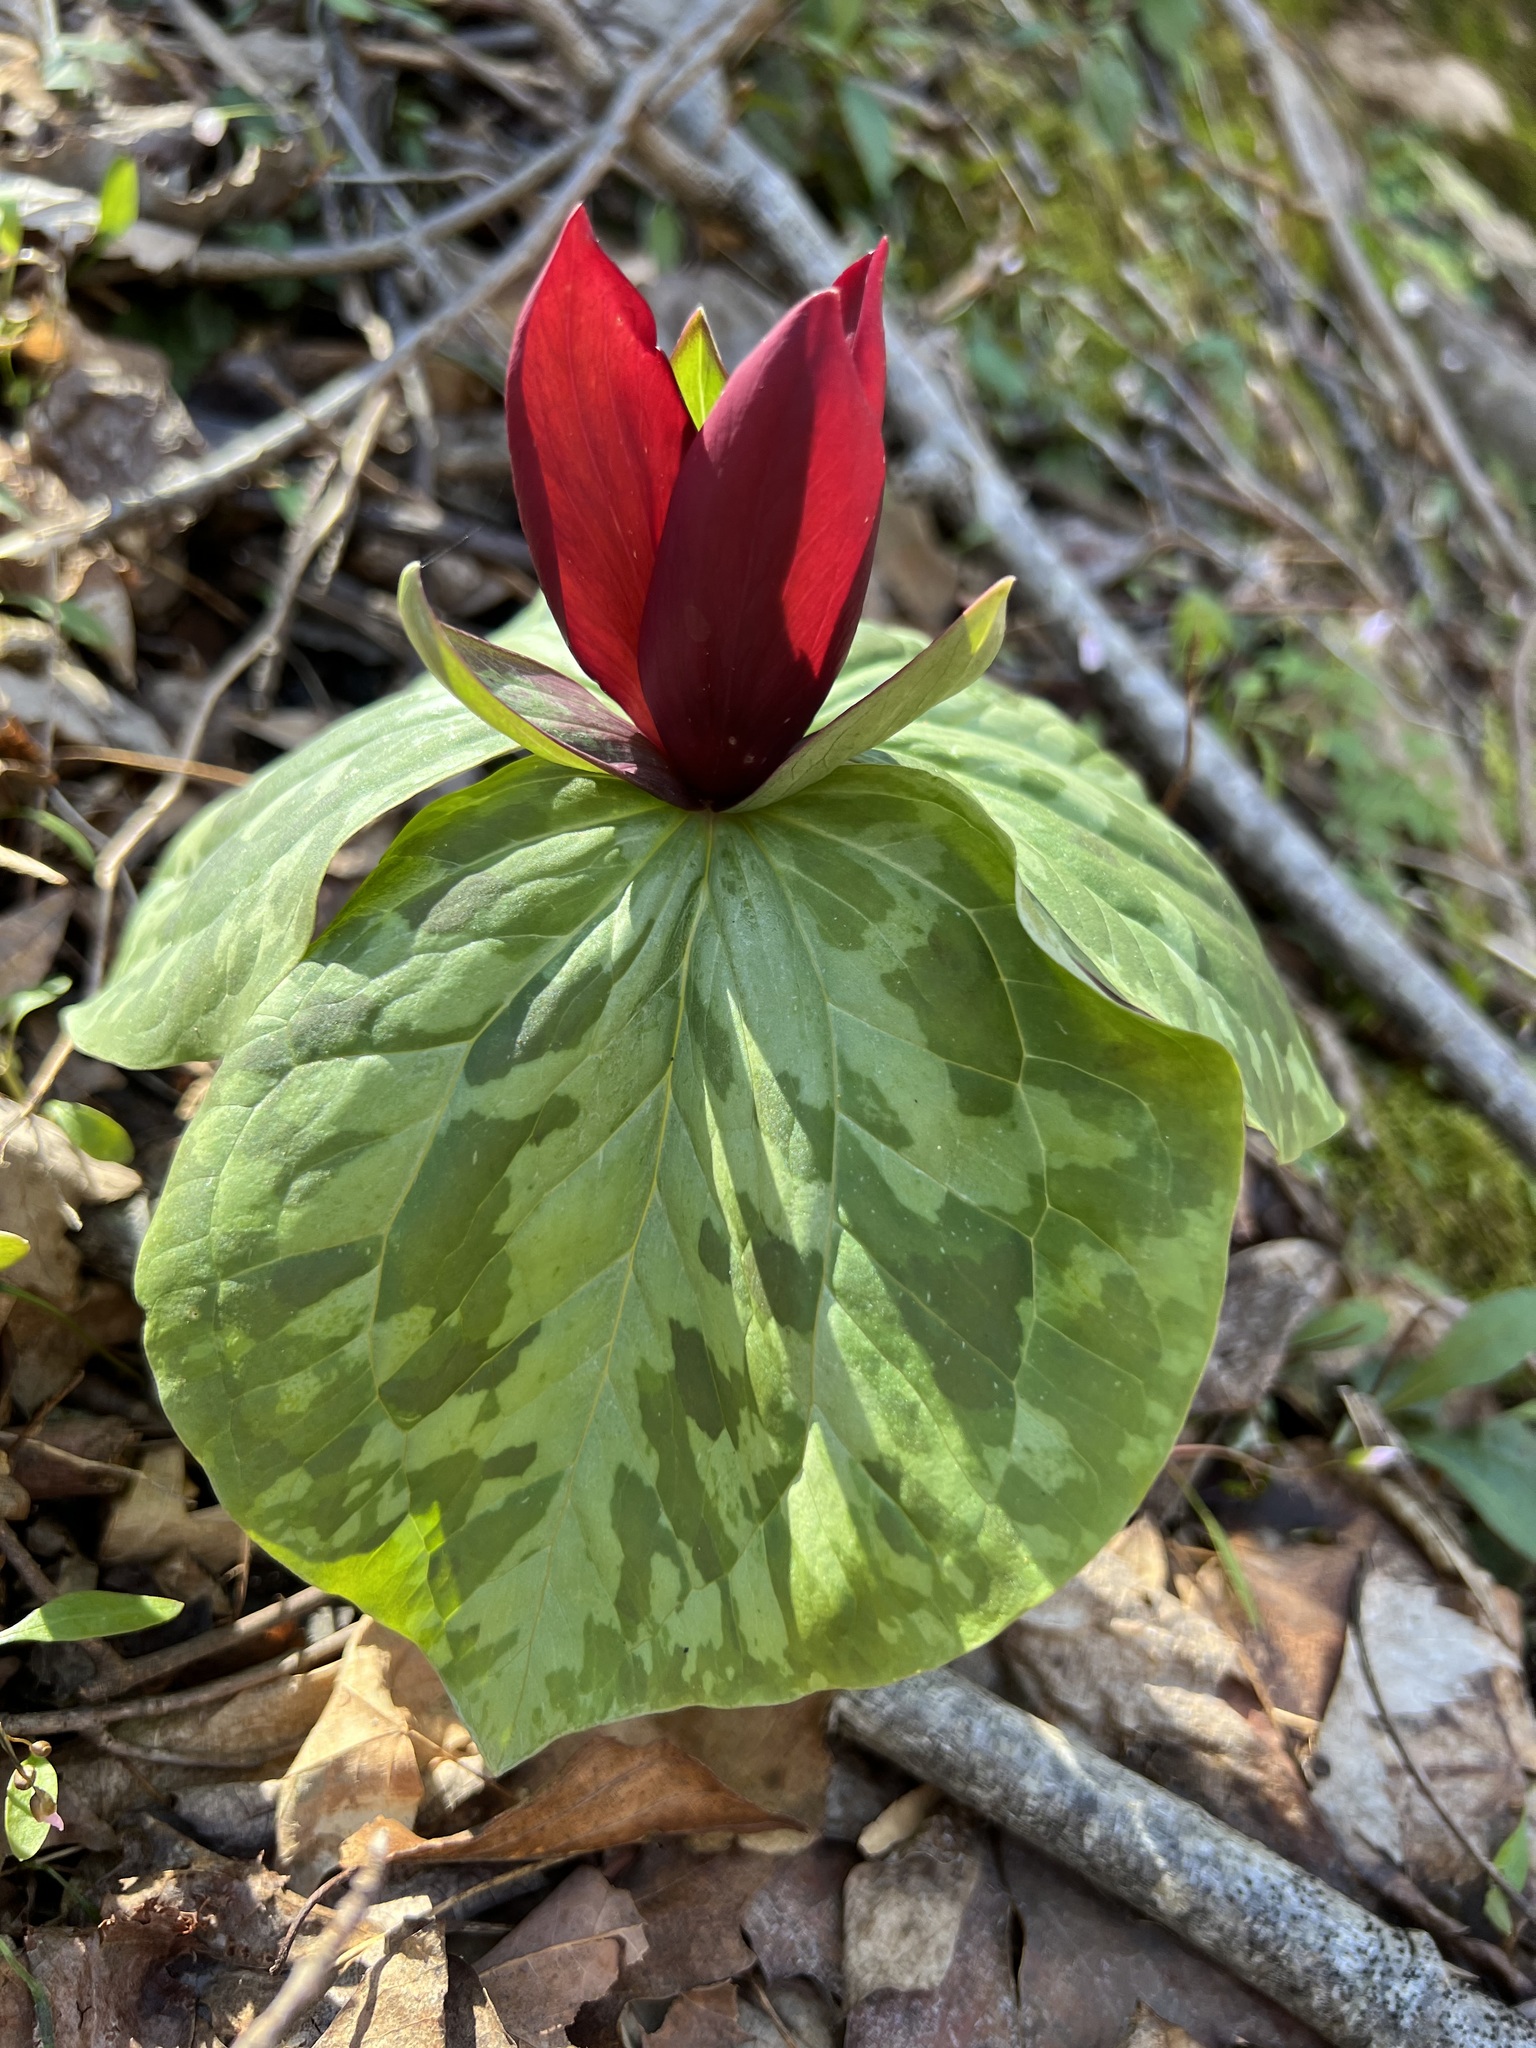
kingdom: Plantae
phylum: Tracheophyta
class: Liliopsida
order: Liliales
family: Melanthiaceae
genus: Trillium
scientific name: Trillium cuneatum
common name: Cuneate trillium
